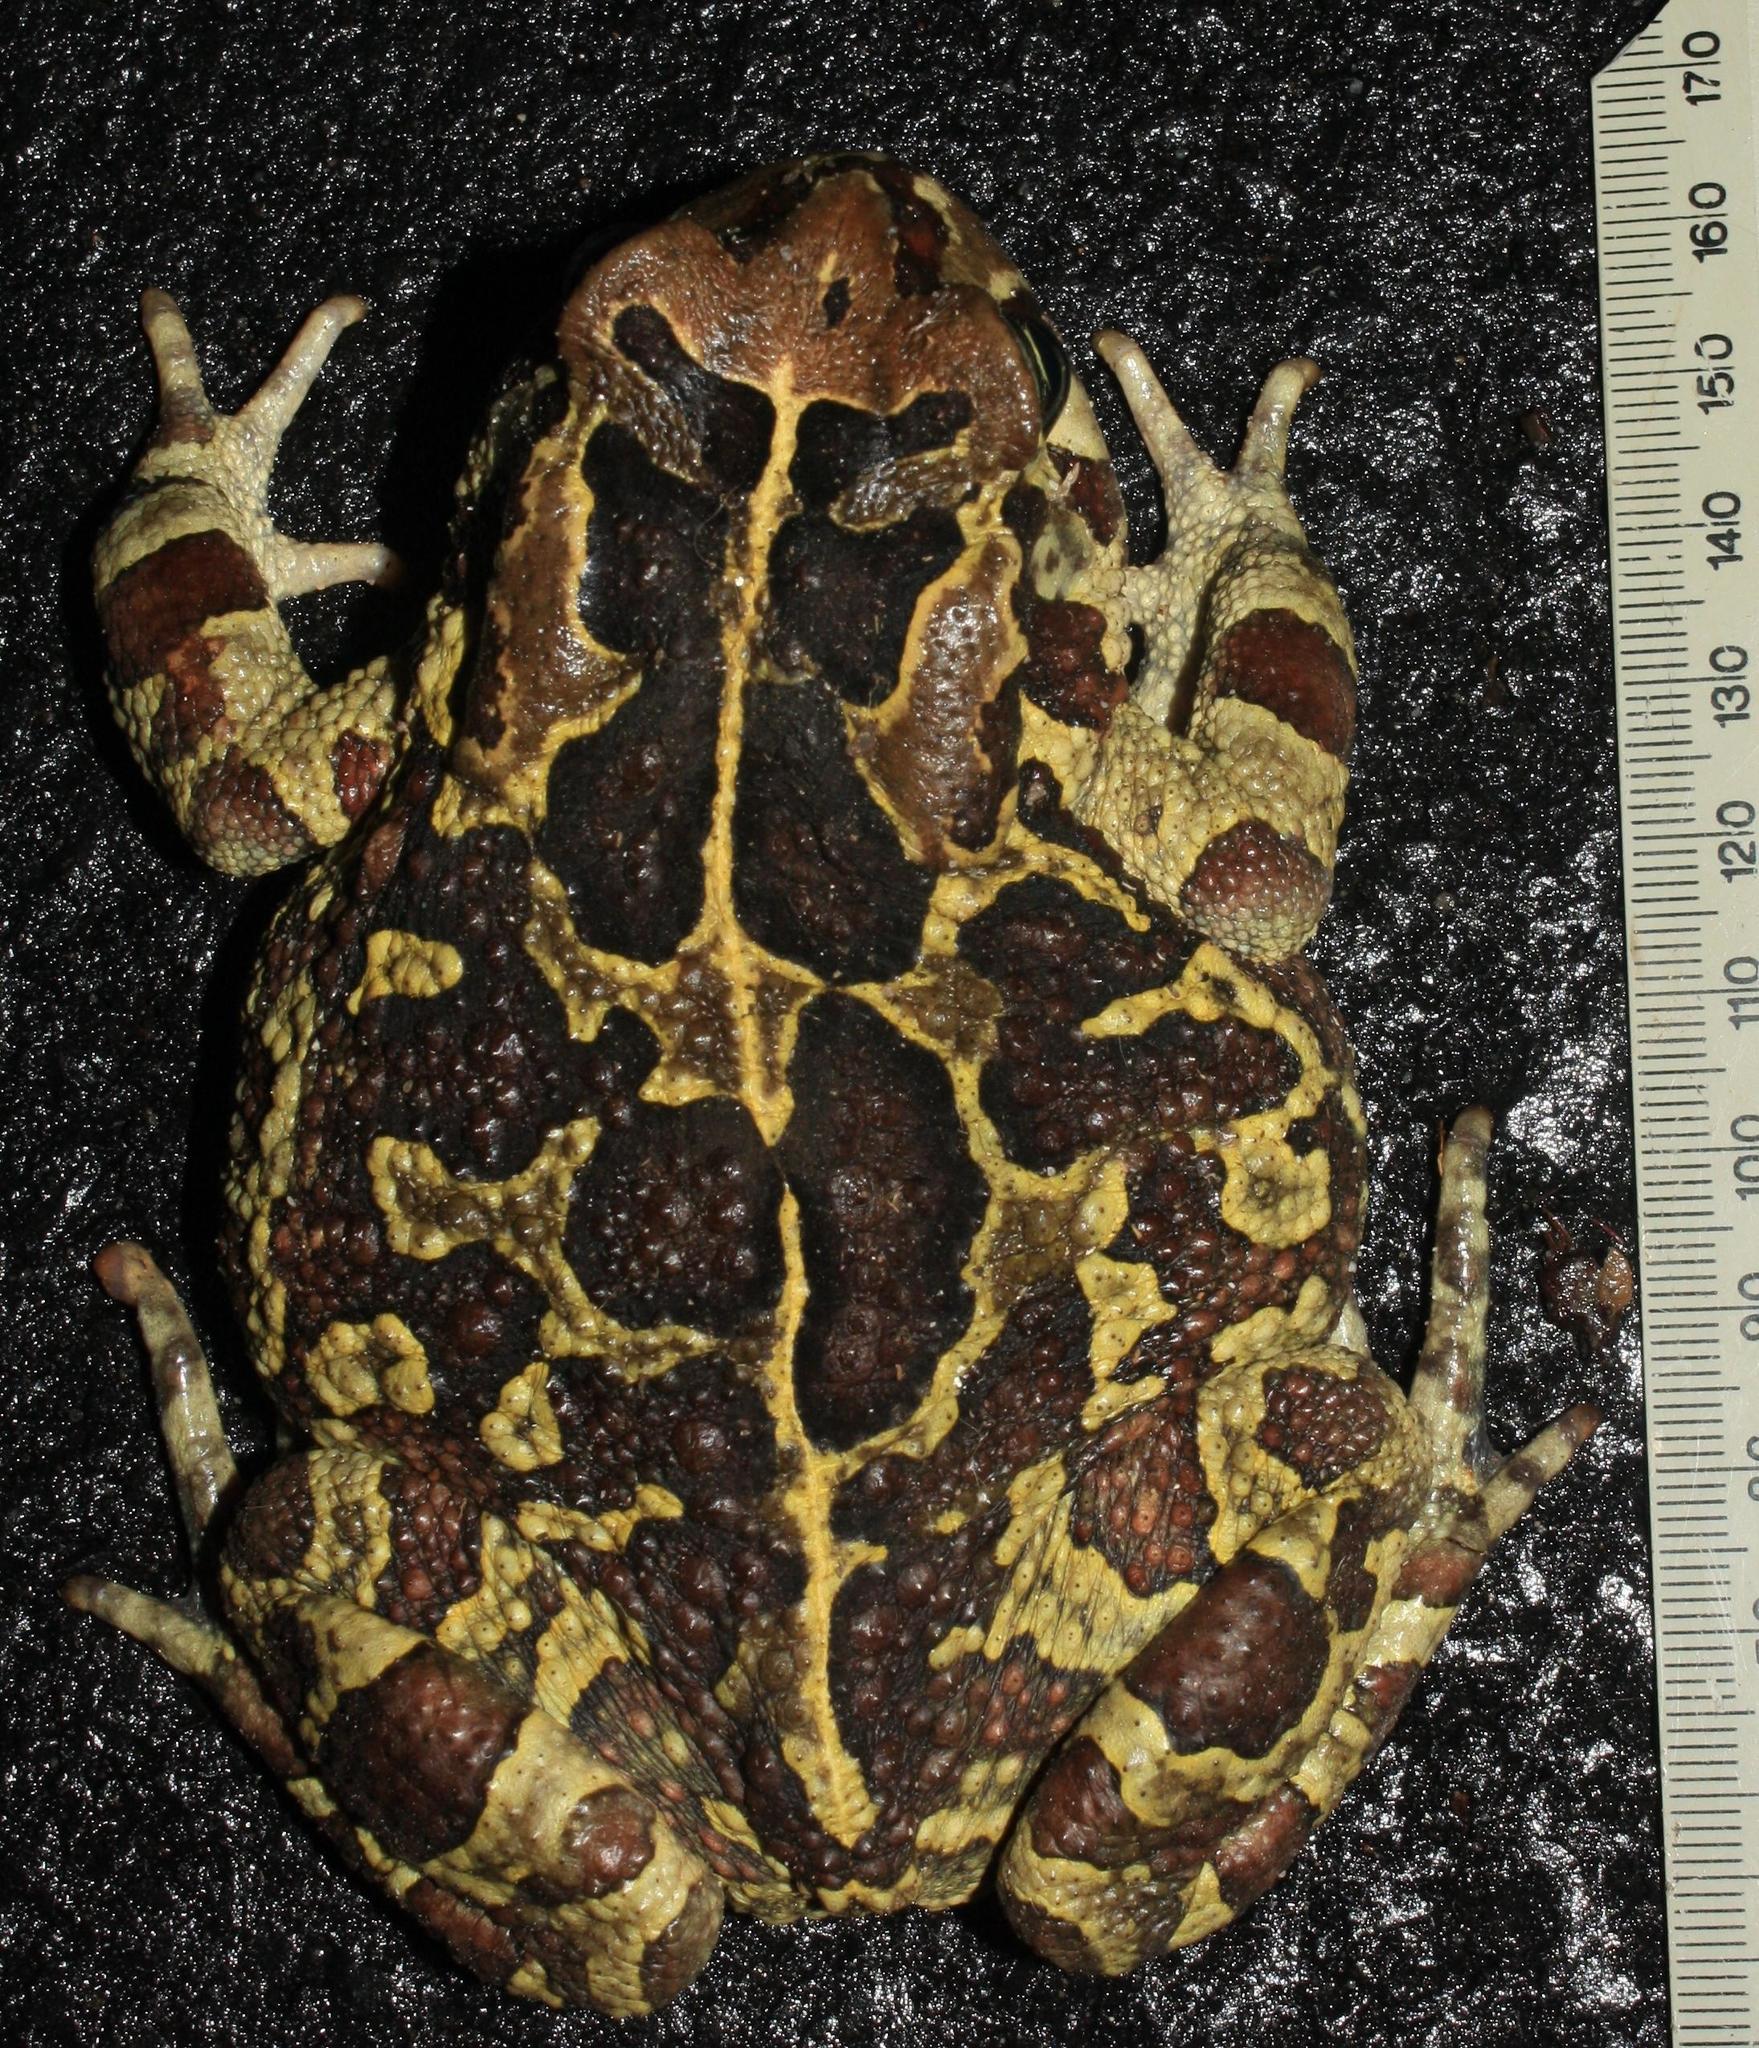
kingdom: Animalia
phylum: Chordata
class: Amphibia
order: Anura
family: Bufonidae
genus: Sclerophrys
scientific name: Sclerophrys pantherina
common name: Panther toad
